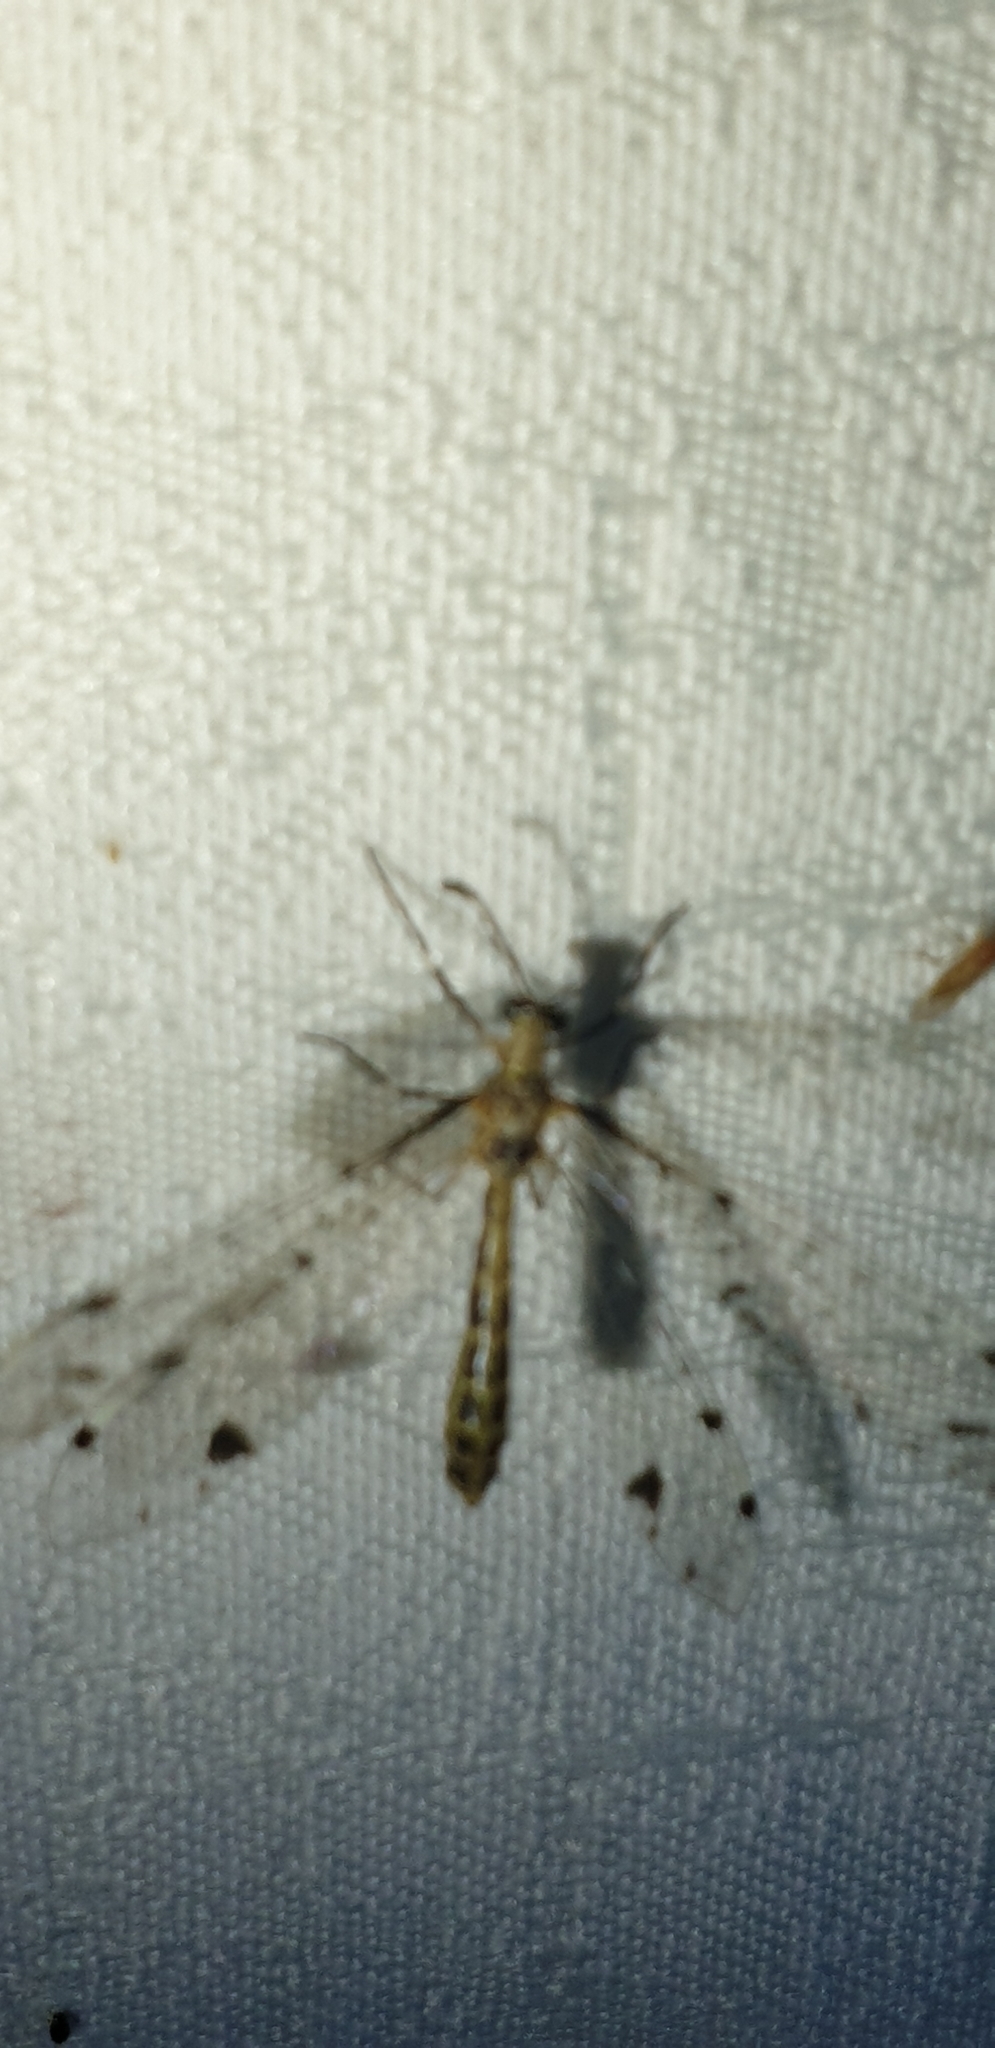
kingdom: Animalia
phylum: Arthropoda
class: Insecta
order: Neuroptera
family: Myrmeleontidae
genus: Riekoleon
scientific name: Riekoleon furcatus
